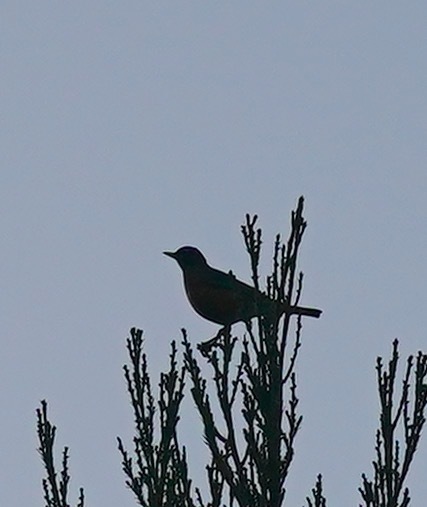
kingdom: Animalia
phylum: Chordata
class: Aves
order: Passeriformes
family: Turdidae
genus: Turdus
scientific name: Turdus migratorius
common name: American robin
